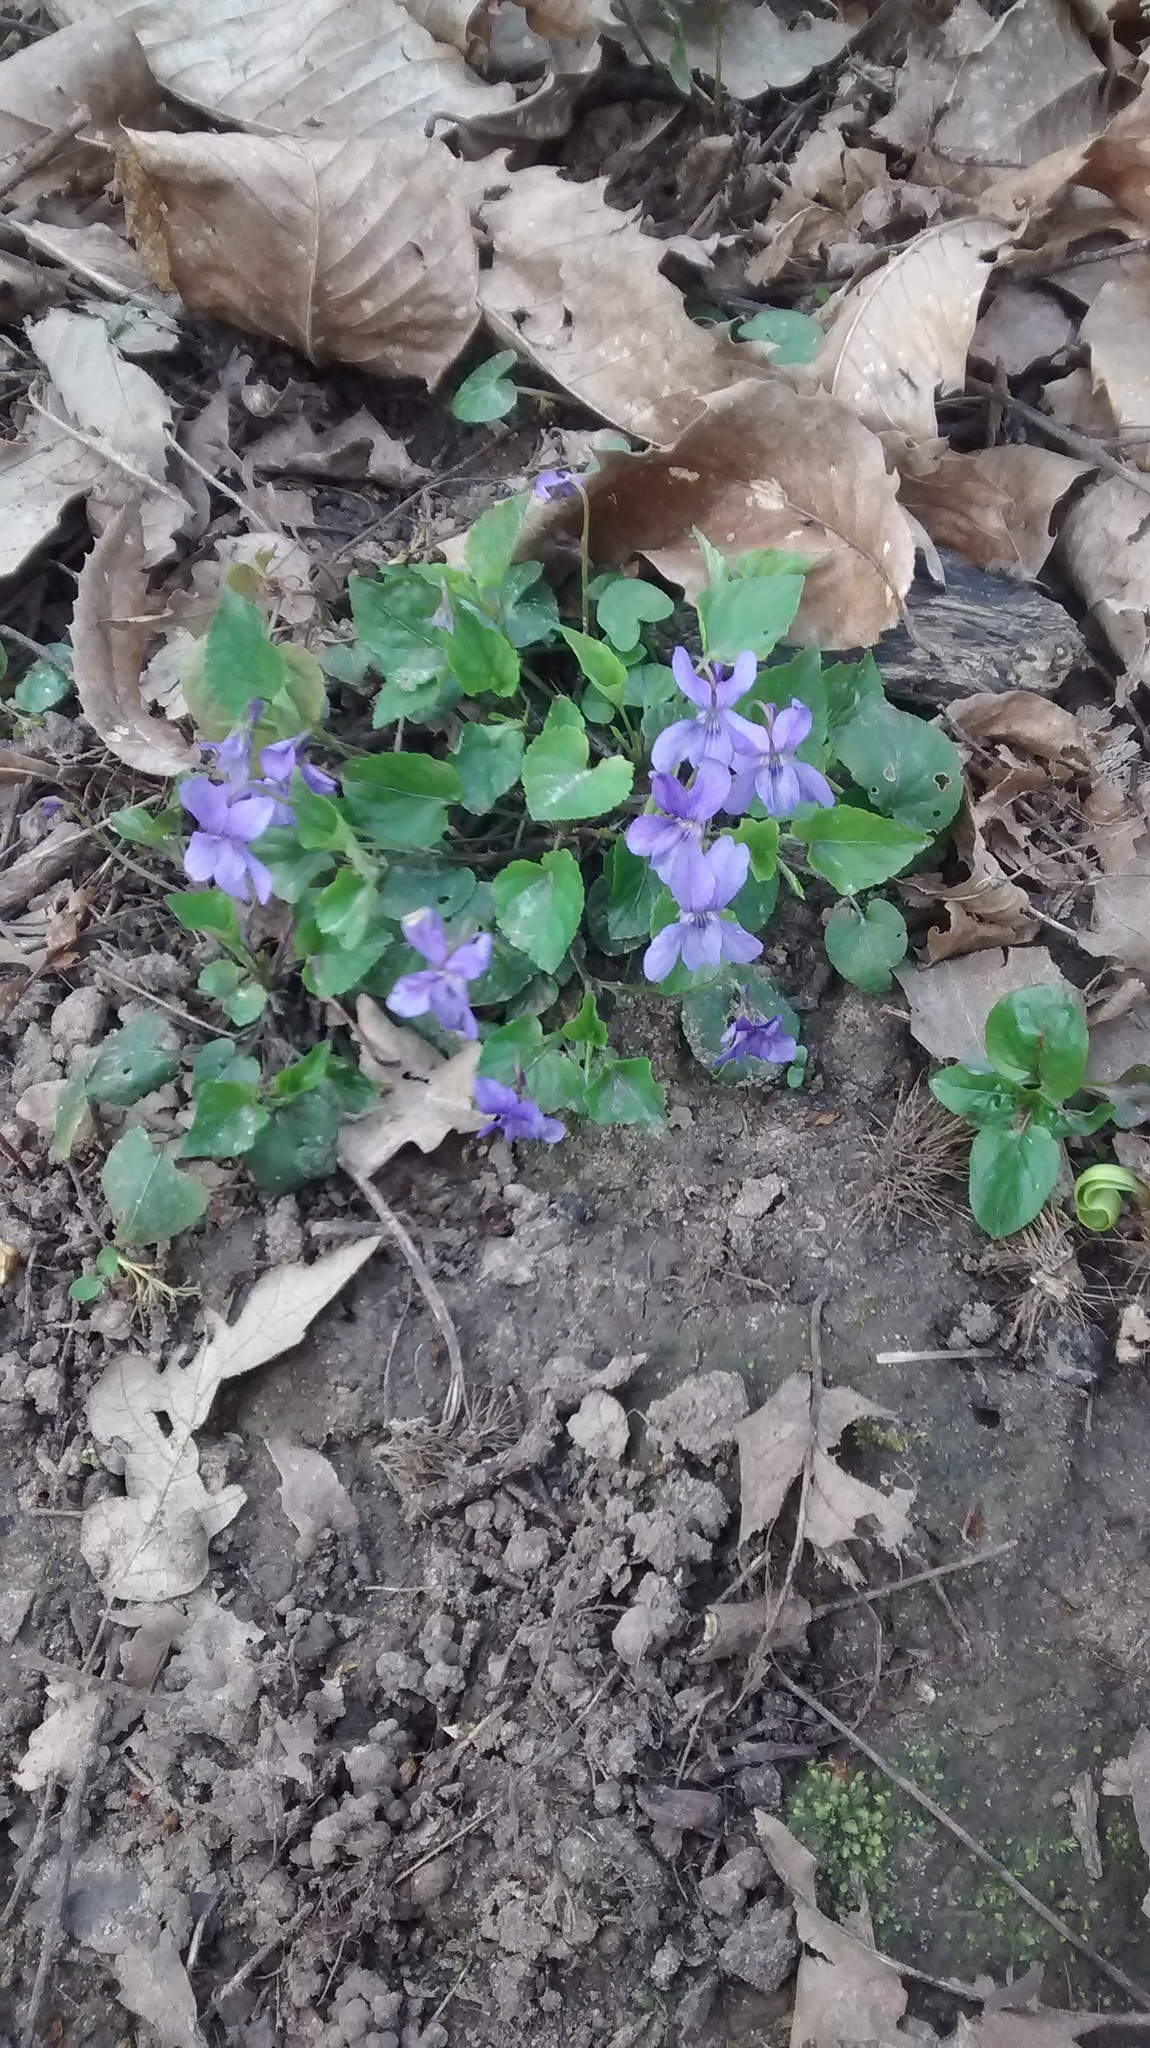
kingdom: Plantae
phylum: Tracheophyta
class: Magnoliopsida
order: Malpighiales
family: Violaceae
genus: Viola
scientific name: Viola reichenbachiana
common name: Early dog-violet
